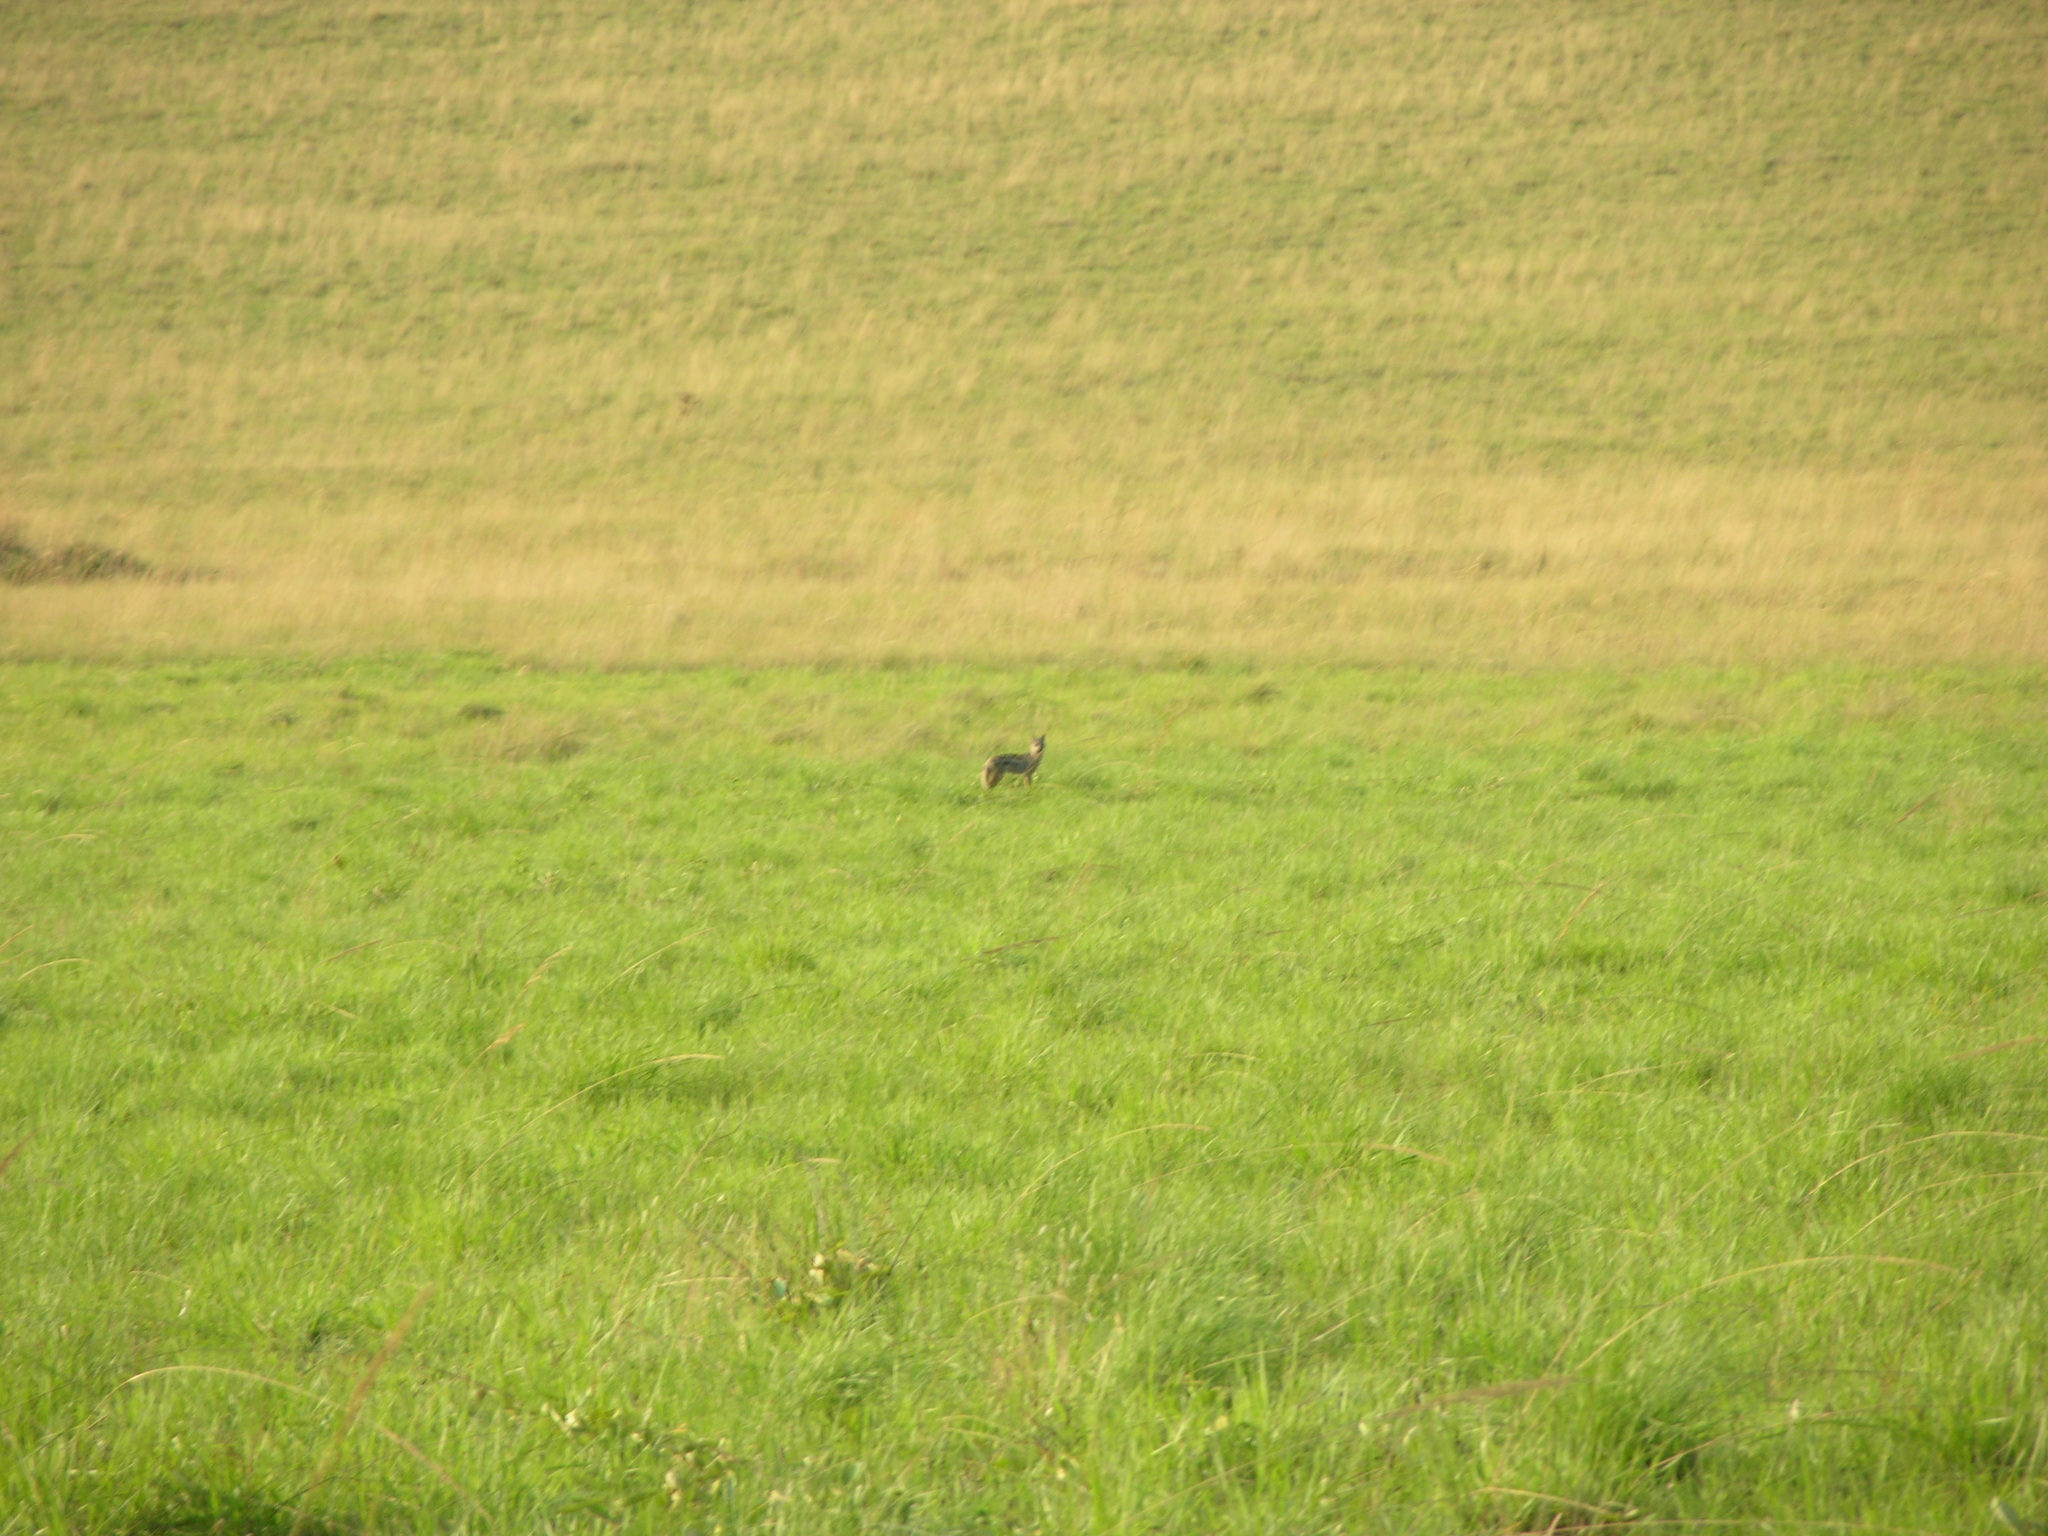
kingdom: Animalia
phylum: Chordata
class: Mammalia
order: Carnivora
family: Canidae
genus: Lupulella
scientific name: Lupulella
